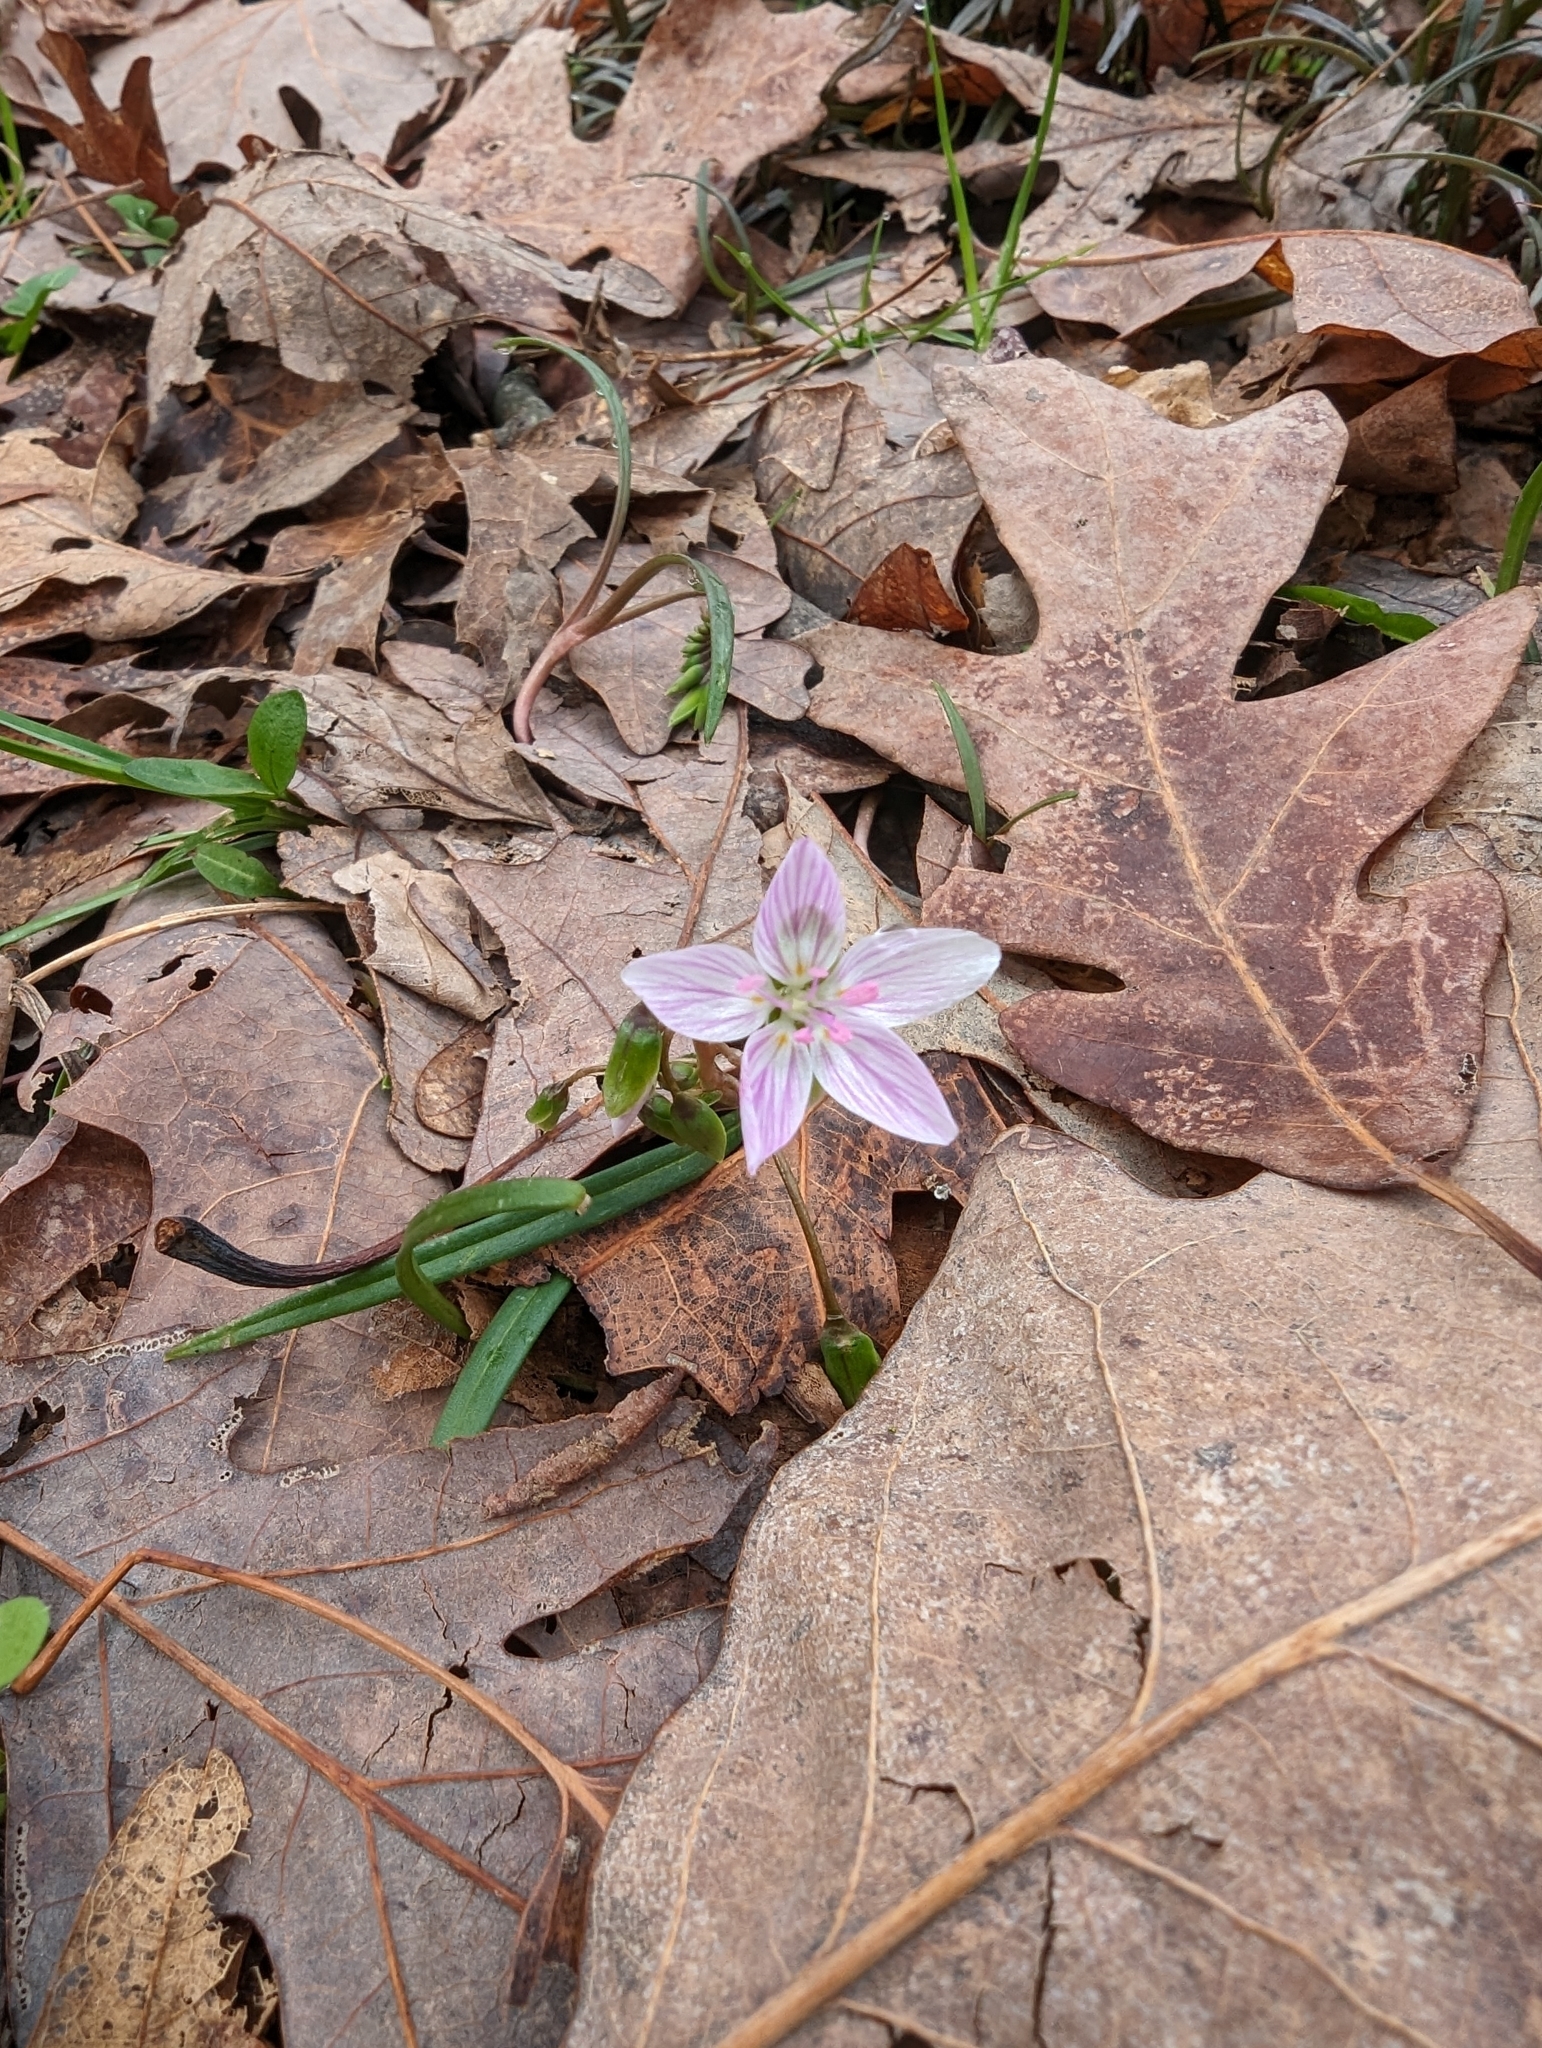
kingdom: Plantae
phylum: Tracheophyta
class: Magnoliopsida
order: Caryophyllales
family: Montiaceae
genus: Claytonia
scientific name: Claytonia virginica
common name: Virginia springbeauty
